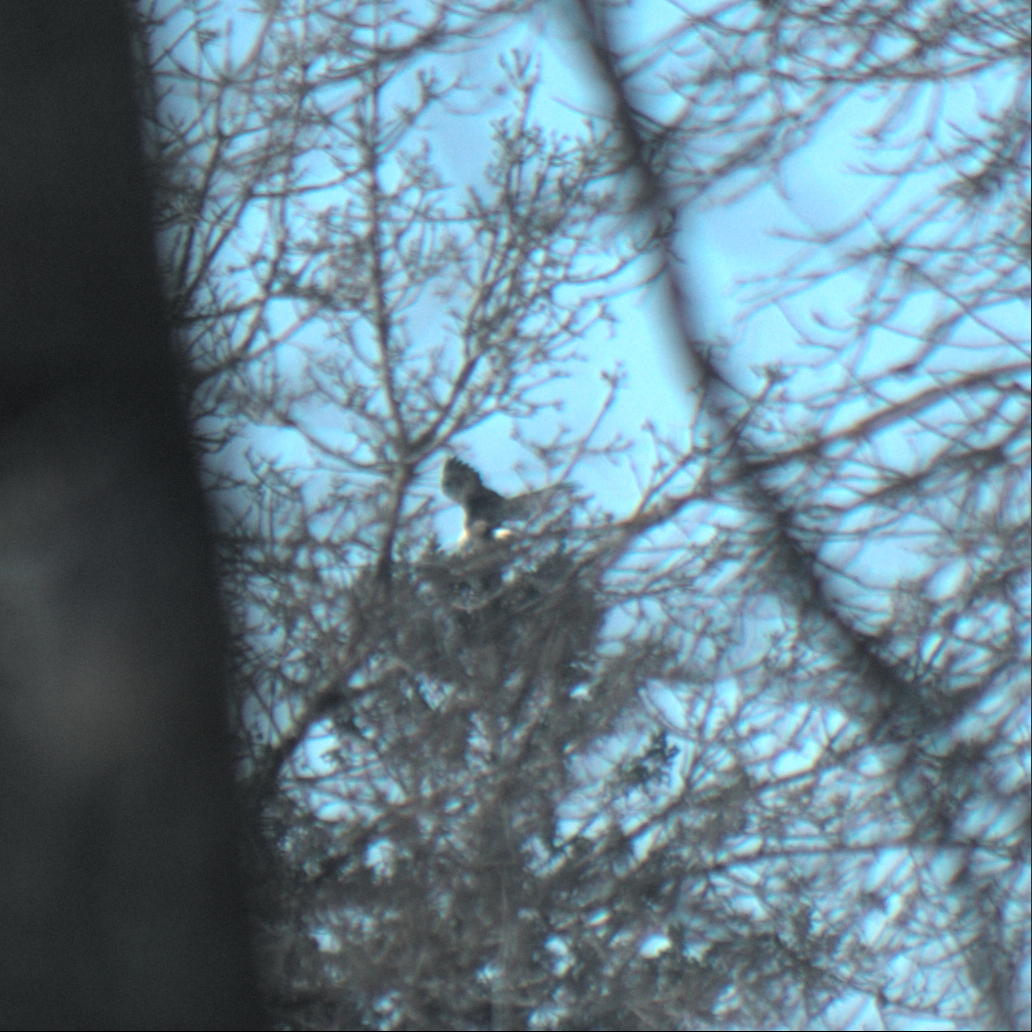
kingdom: Animalia
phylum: Chordata
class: Aves
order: Accipitriformes
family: Accipitridae
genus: Haliaeetus
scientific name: Haliaeetus leucocephalus
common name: Bald eagle
